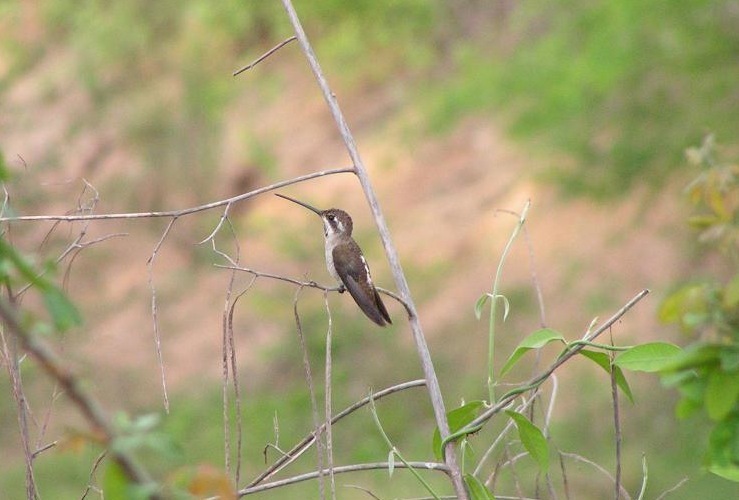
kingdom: Animalia
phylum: Chordata
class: Aves
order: Apodiformes
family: Trochilidae
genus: Heliomaster
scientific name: Heliomaster constantii
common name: Plain-capped starthroat
